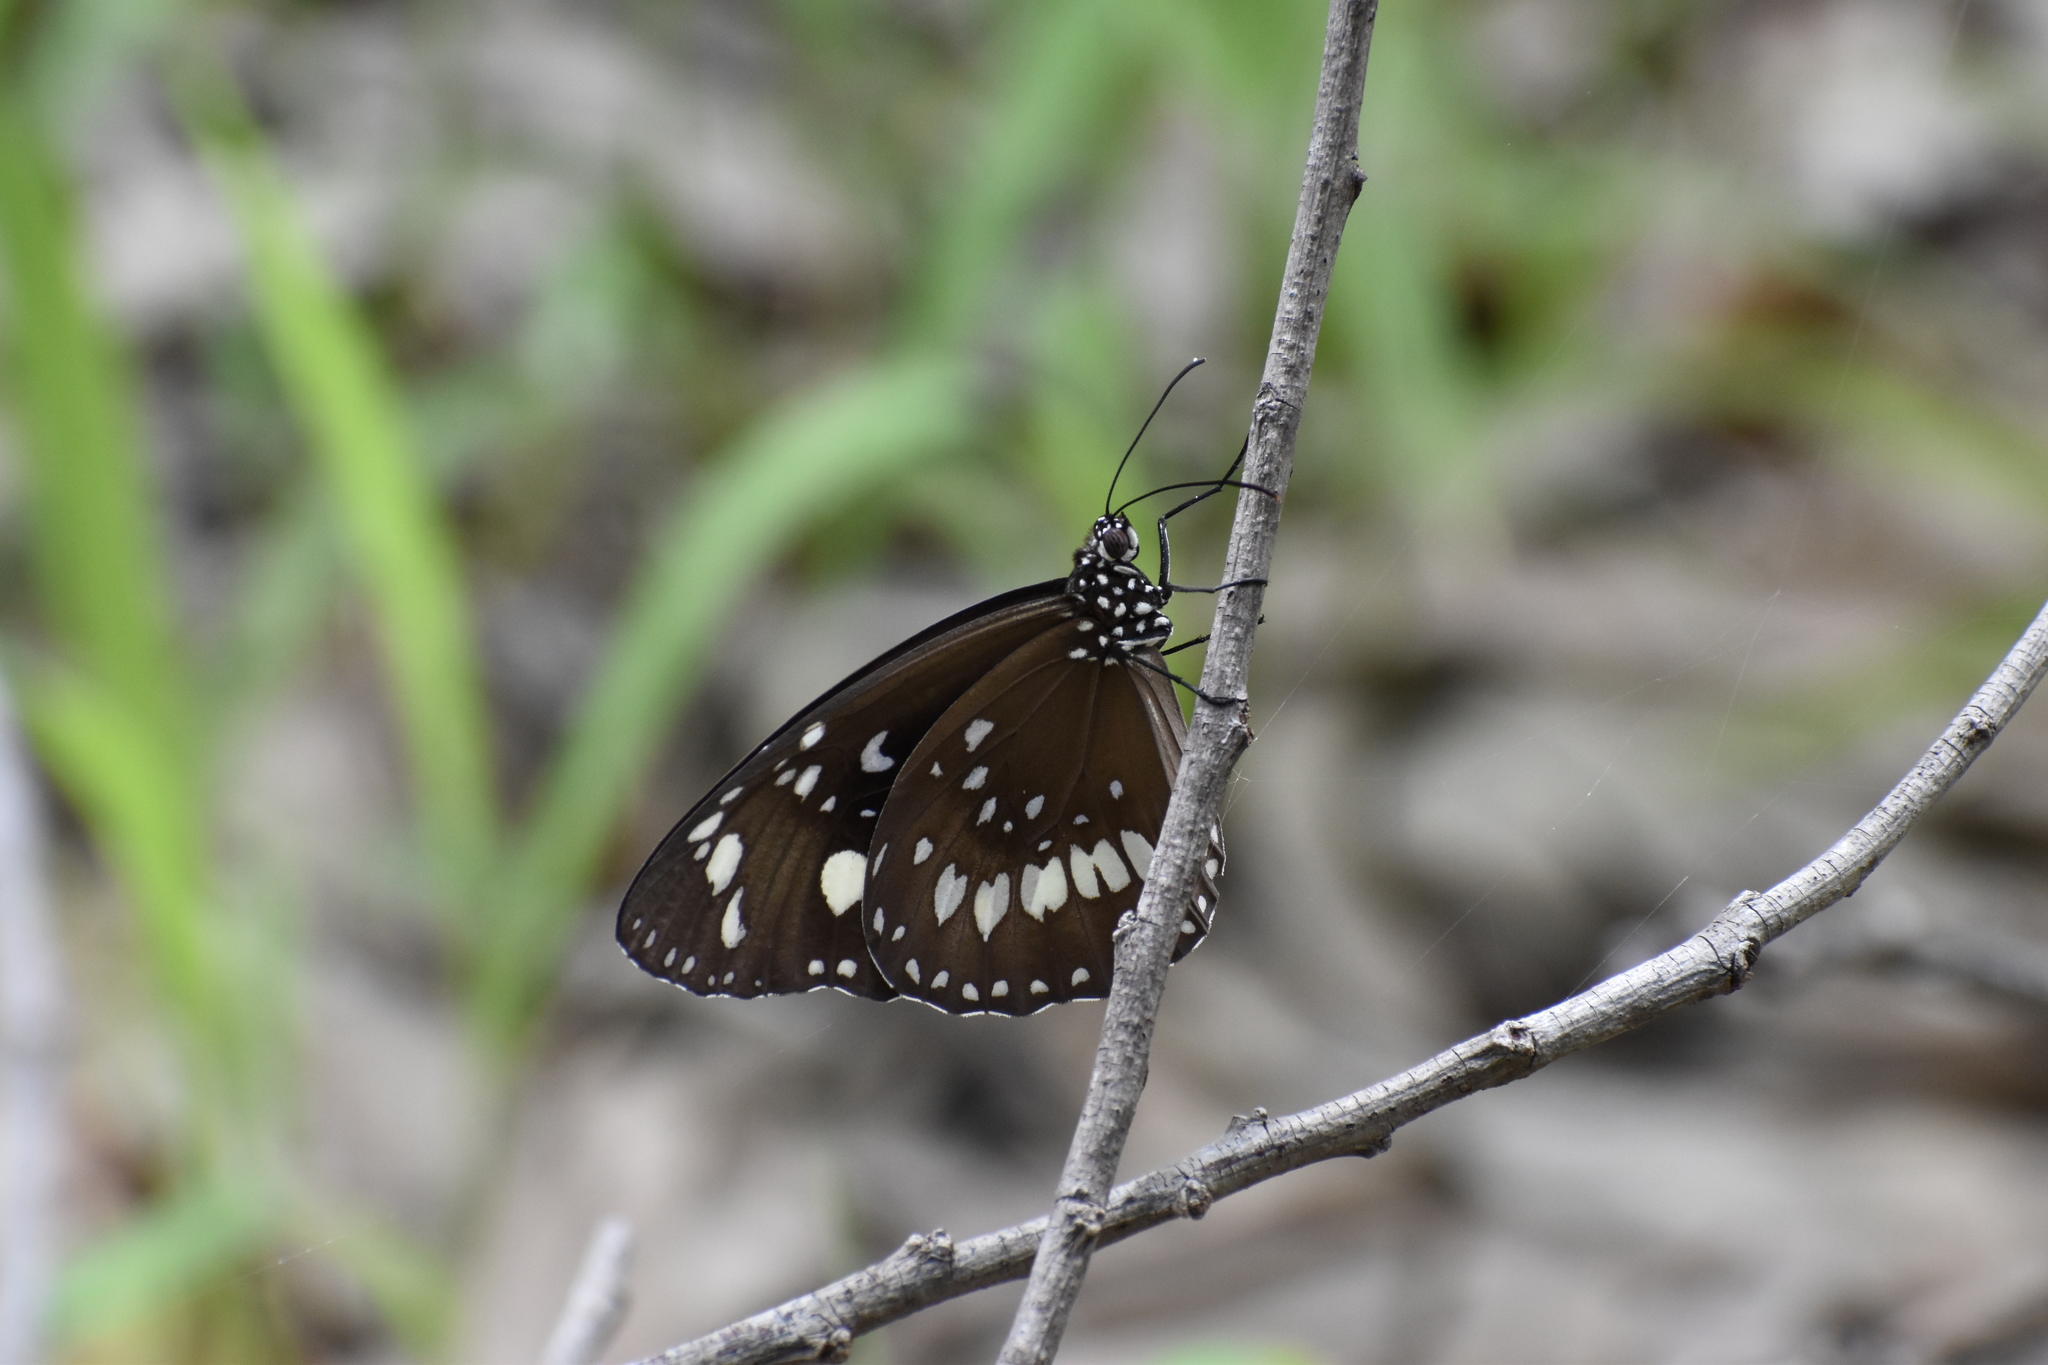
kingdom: Animalia
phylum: Arthropoda
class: Insecta
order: Lepidoptera
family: Nymphalidae
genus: Euploea
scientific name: Euploea core
